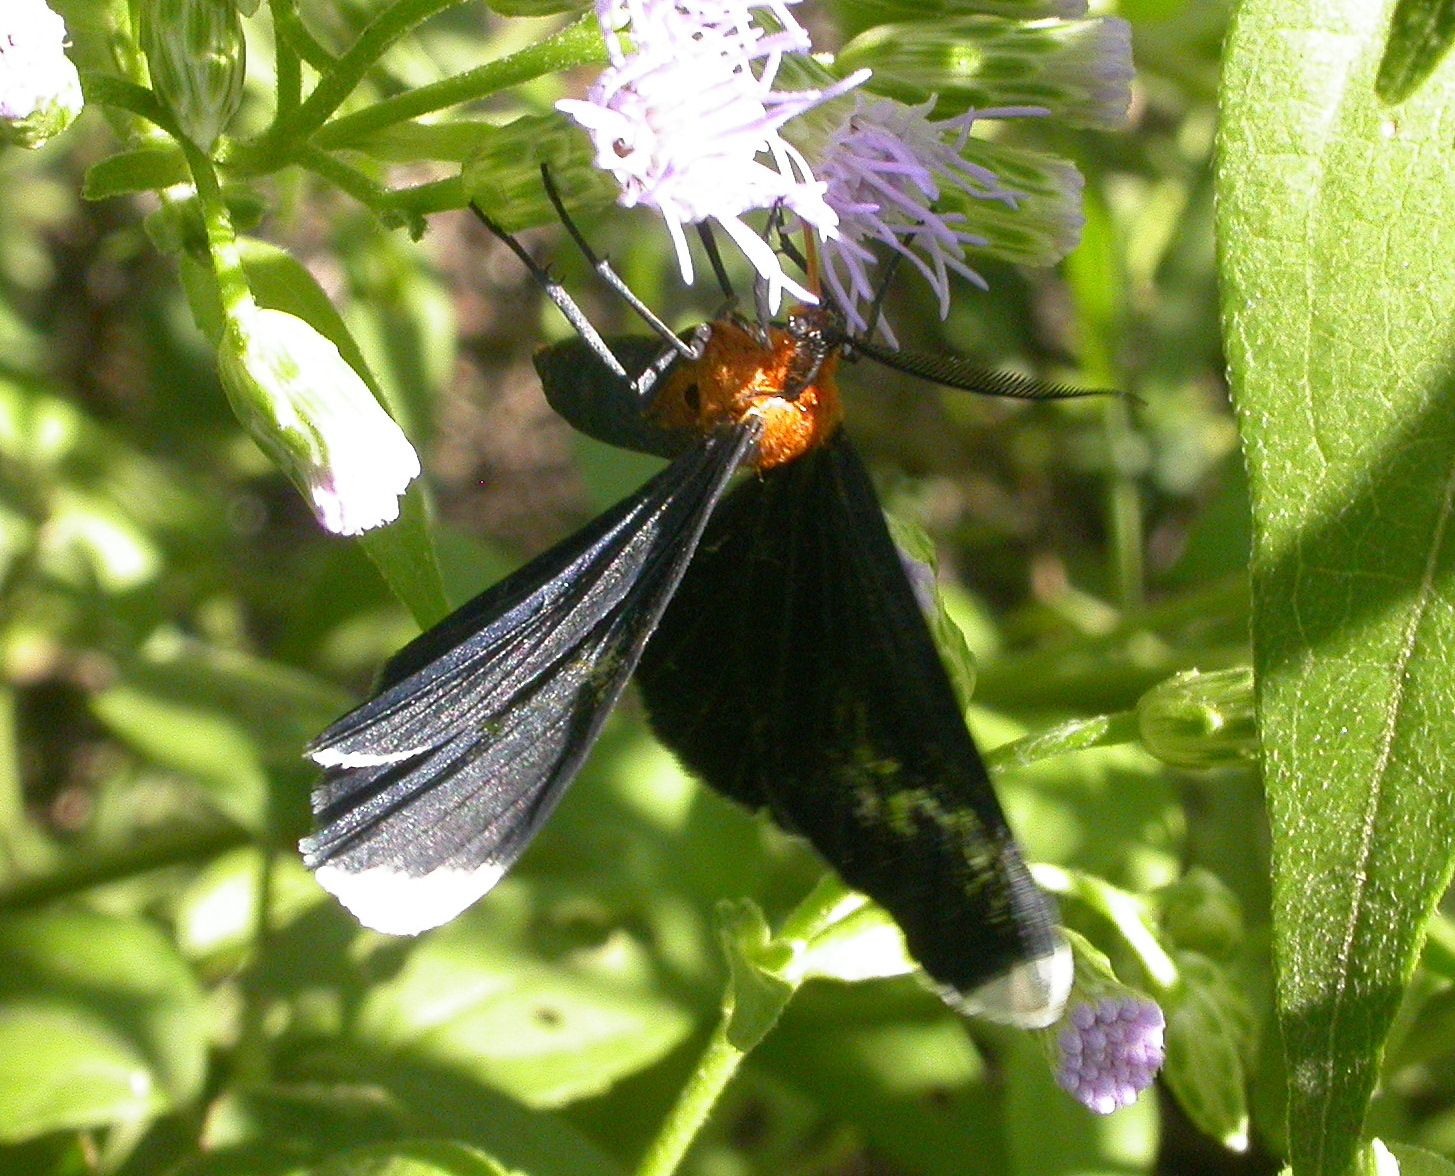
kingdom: Animalia
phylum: Arthropoda
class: Insecta
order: Lepidoptera
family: Geometridae
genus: Melanchroia
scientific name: Melanchroia chephise
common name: White-tipped black
